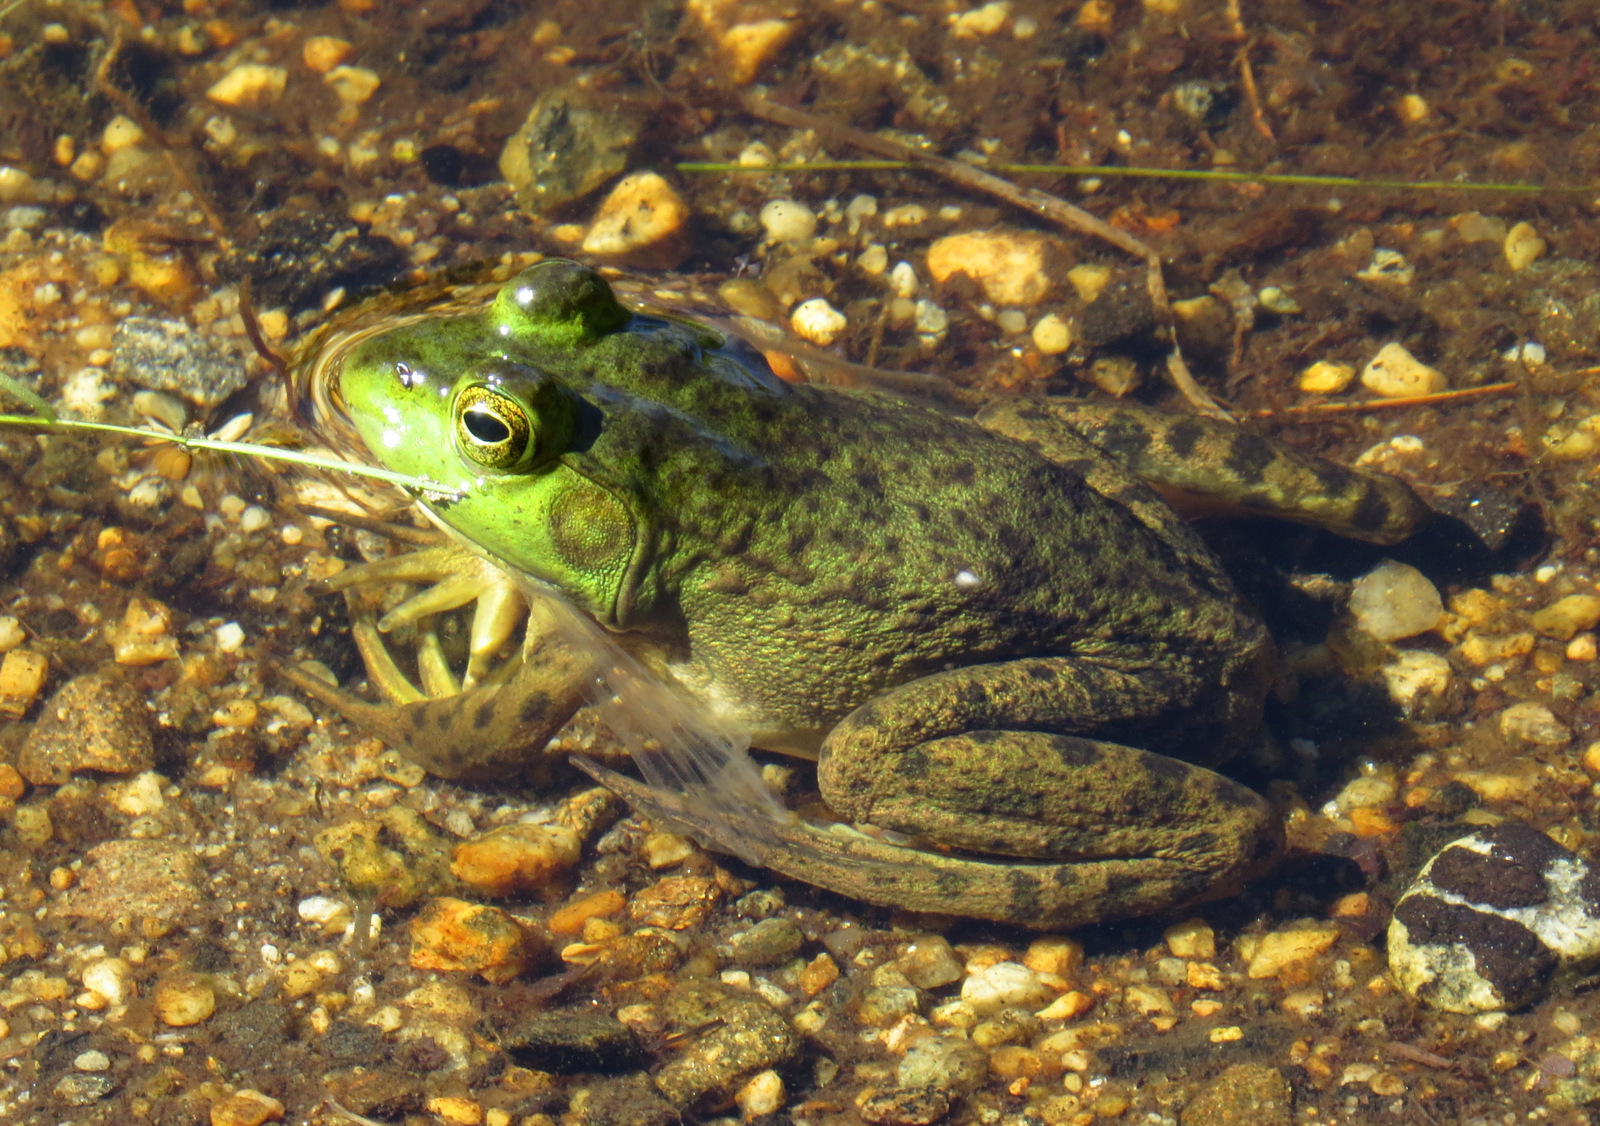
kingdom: Animalia
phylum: Chordata
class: Amphibia
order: Anura
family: Ranidae
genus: Lithobates
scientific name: Lithobates catesbeianus
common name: American bullfrog
